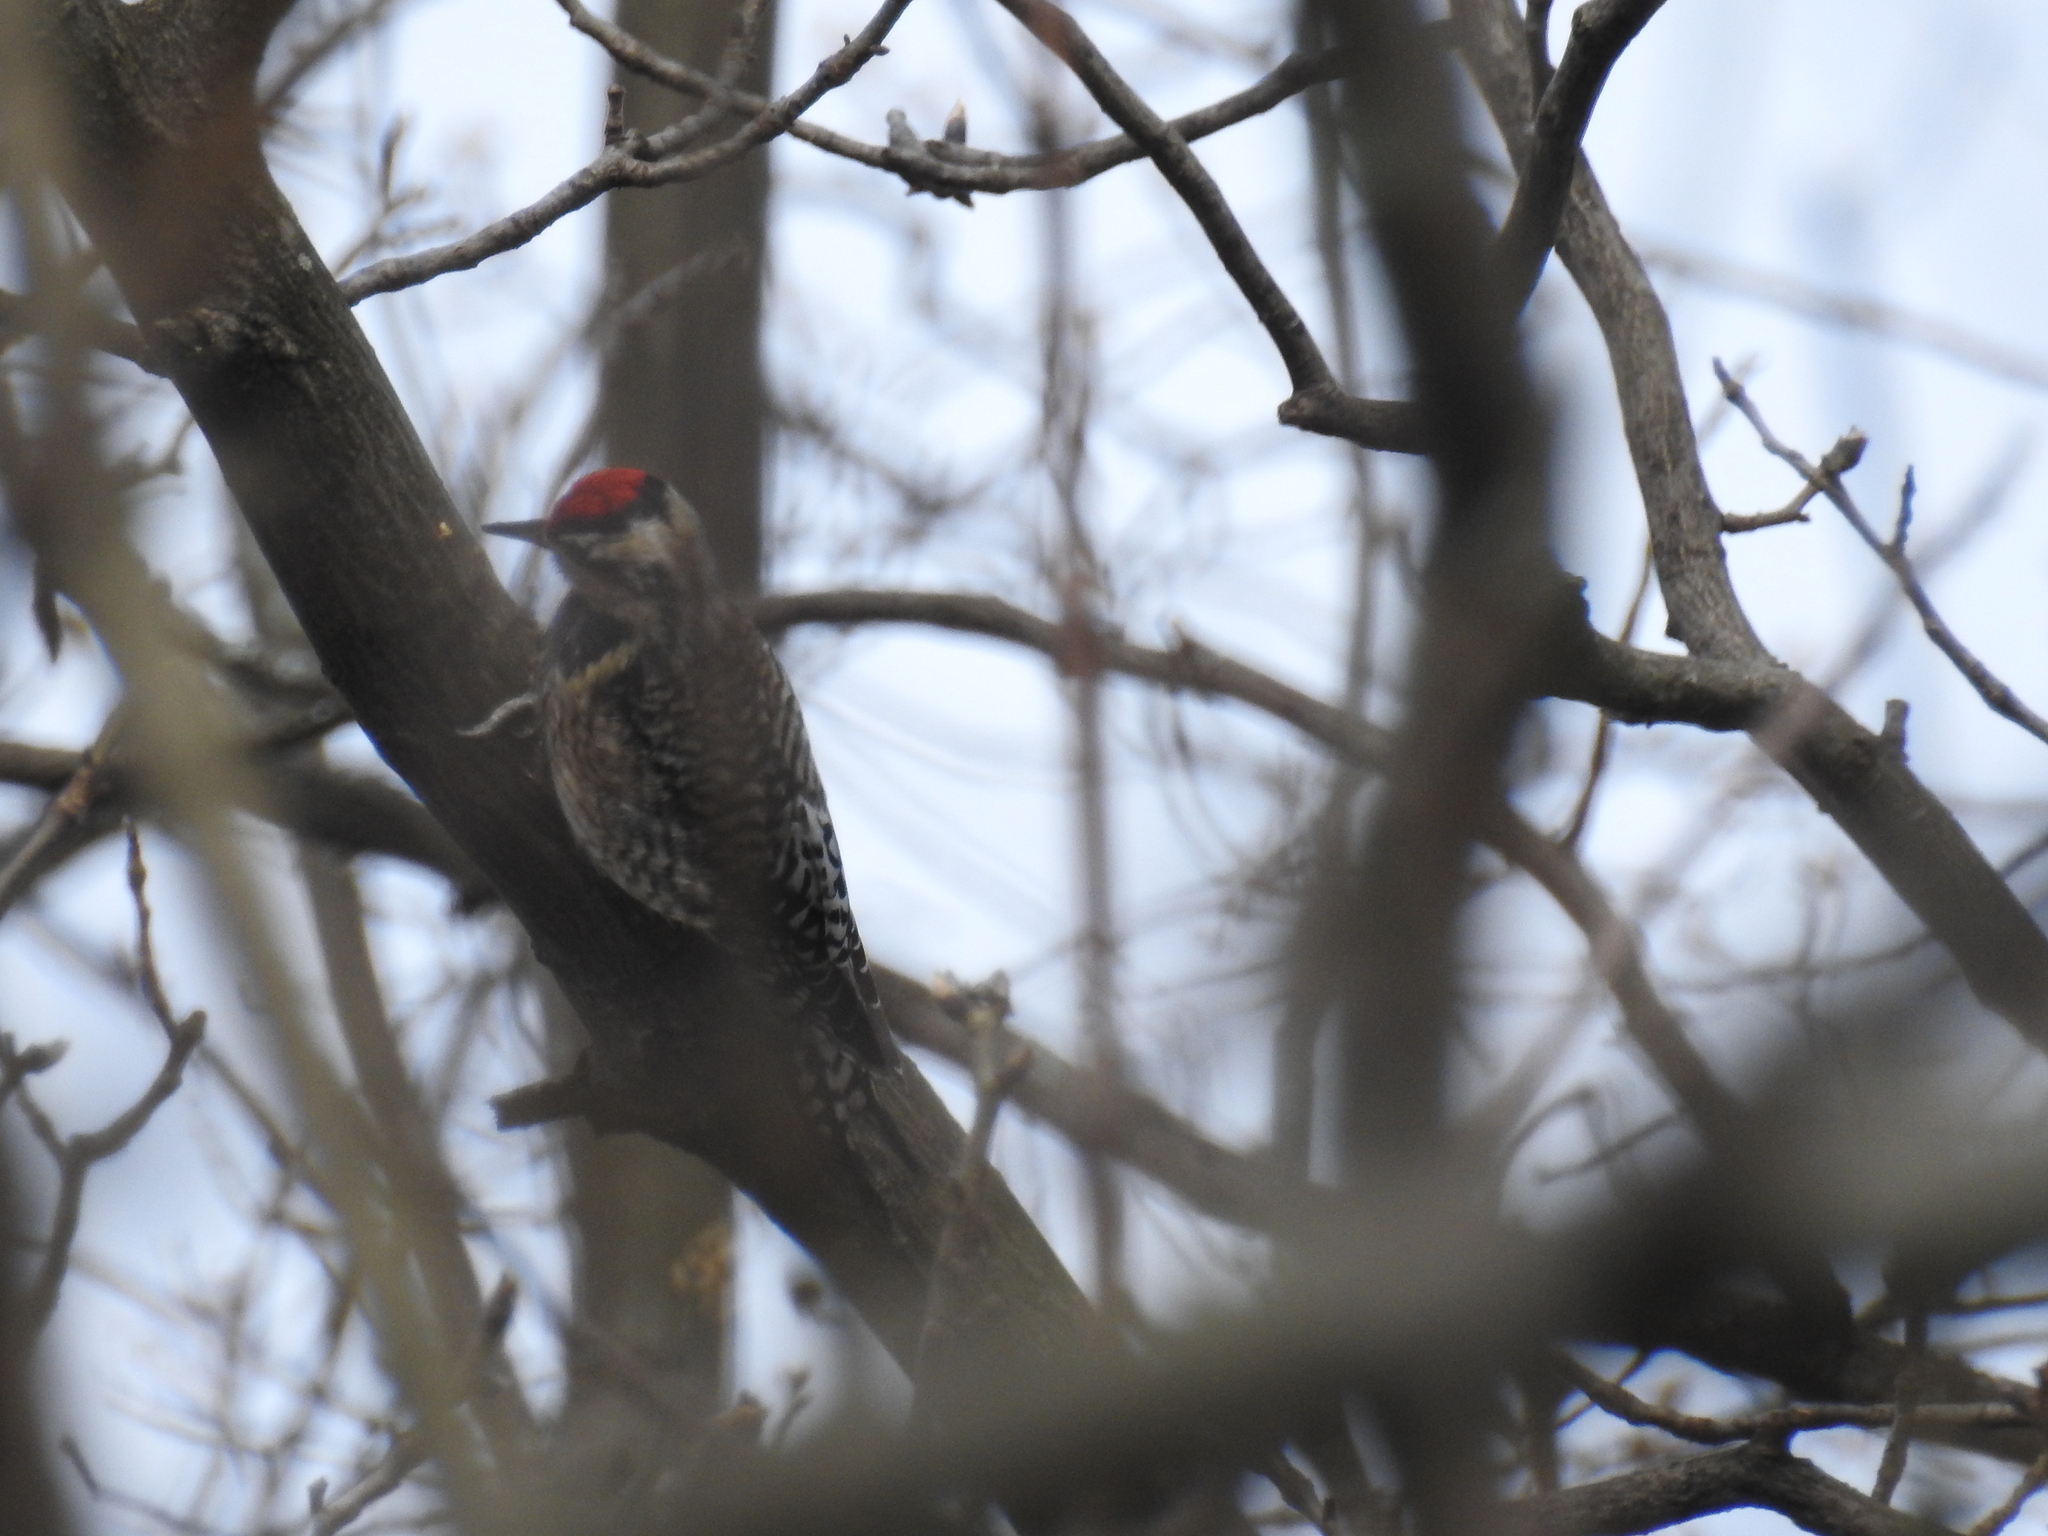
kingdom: Animalia
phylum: Chordata
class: Aves
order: Piciformes
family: Picidae
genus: Sphyrapicus
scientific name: Sphyrapicus varius
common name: Yellow-bellied sapsucker
